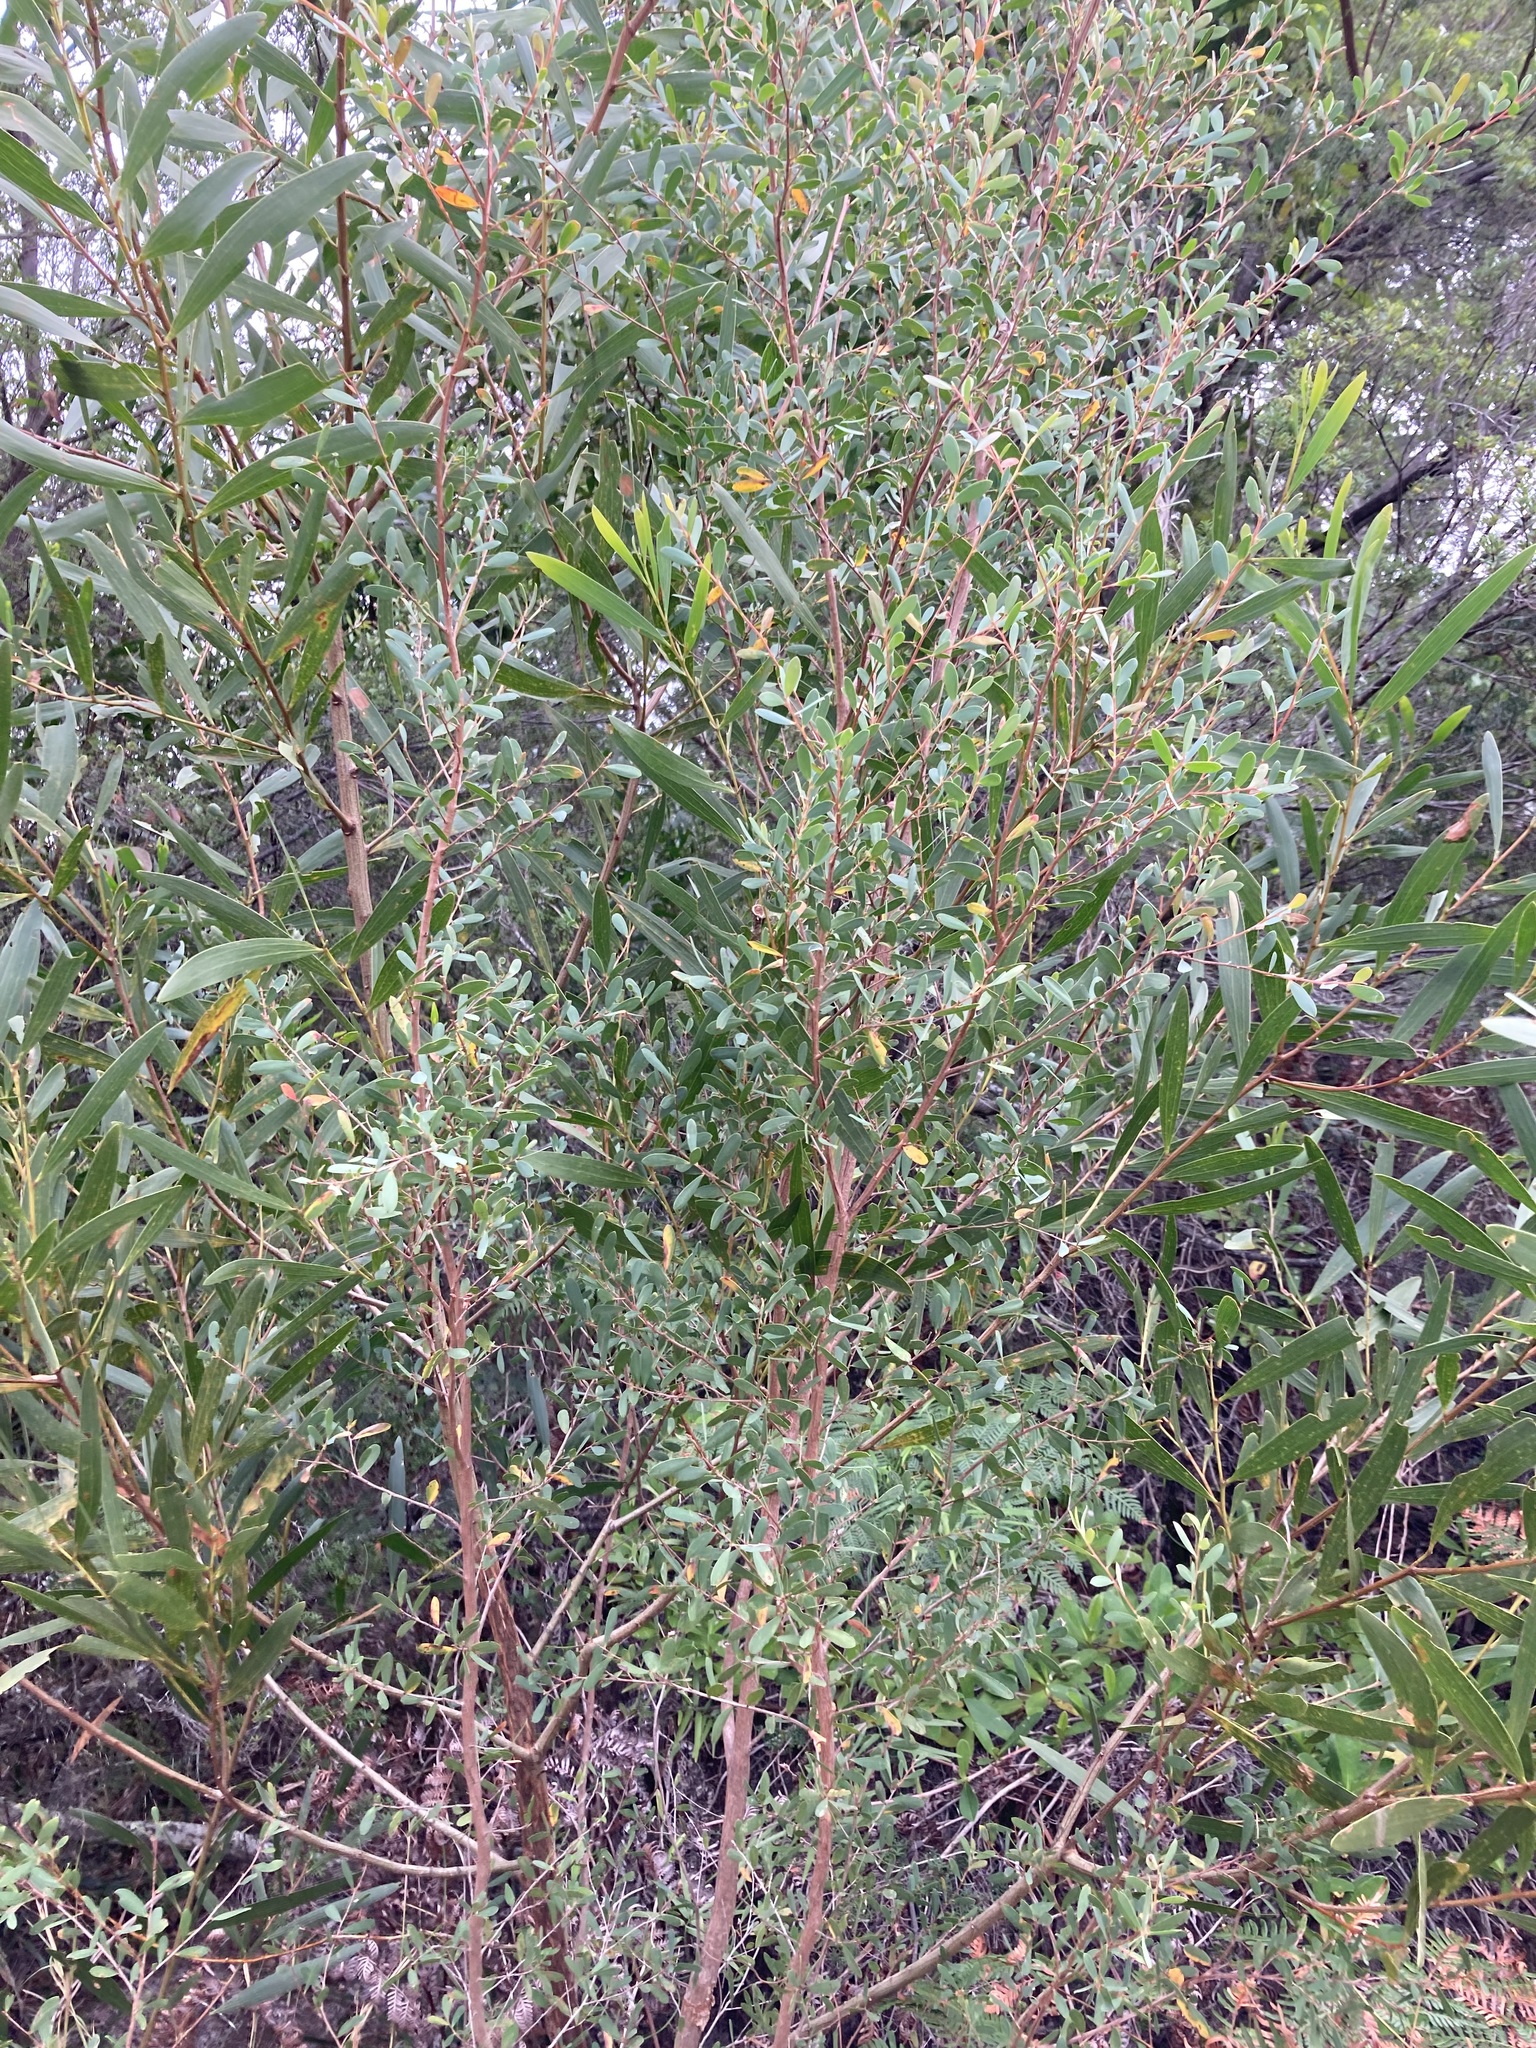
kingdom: Plantae
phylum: Tracheophyta
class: Magnoliopsida
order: Myrtales
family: Myrtaceae
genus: Leptospermum
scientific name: Leptospermum laevigatum
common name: Australian teatree
